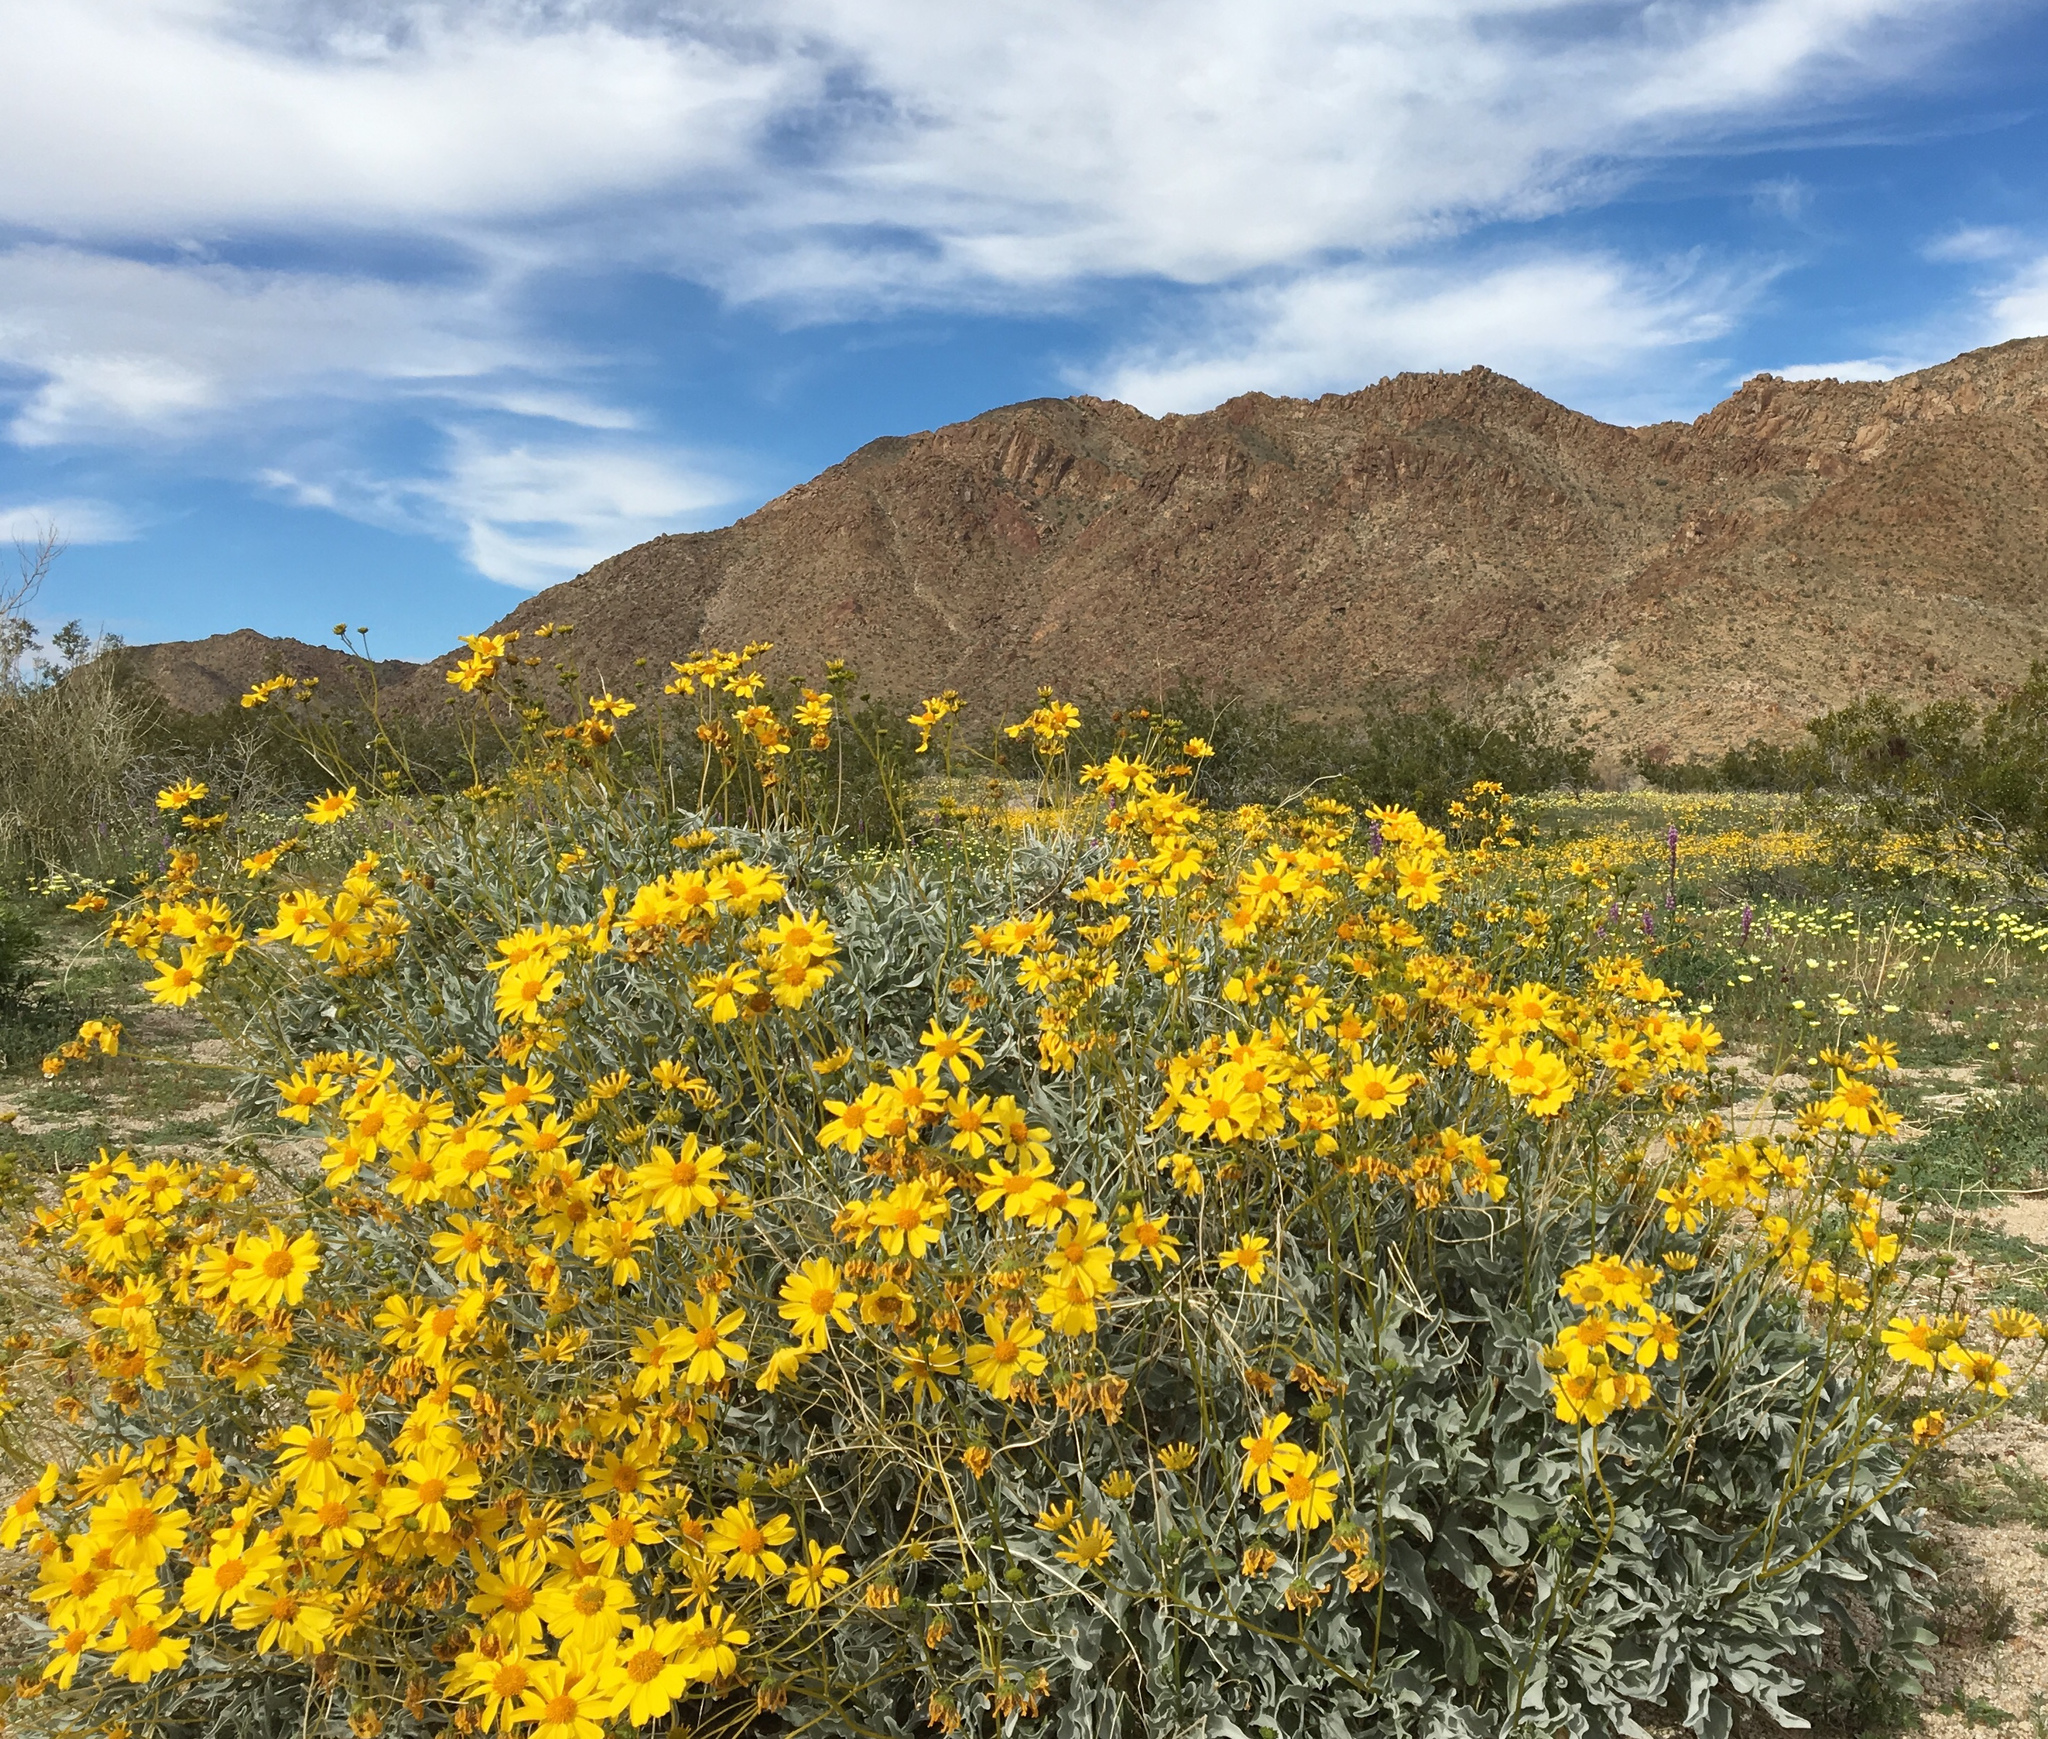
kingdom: Plantae
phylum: Tracheophyta
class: Magnoliopsida
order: Asterales
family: Asteraceae
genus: Encelia
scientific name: Encelia farinosa
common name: Brittlebush
